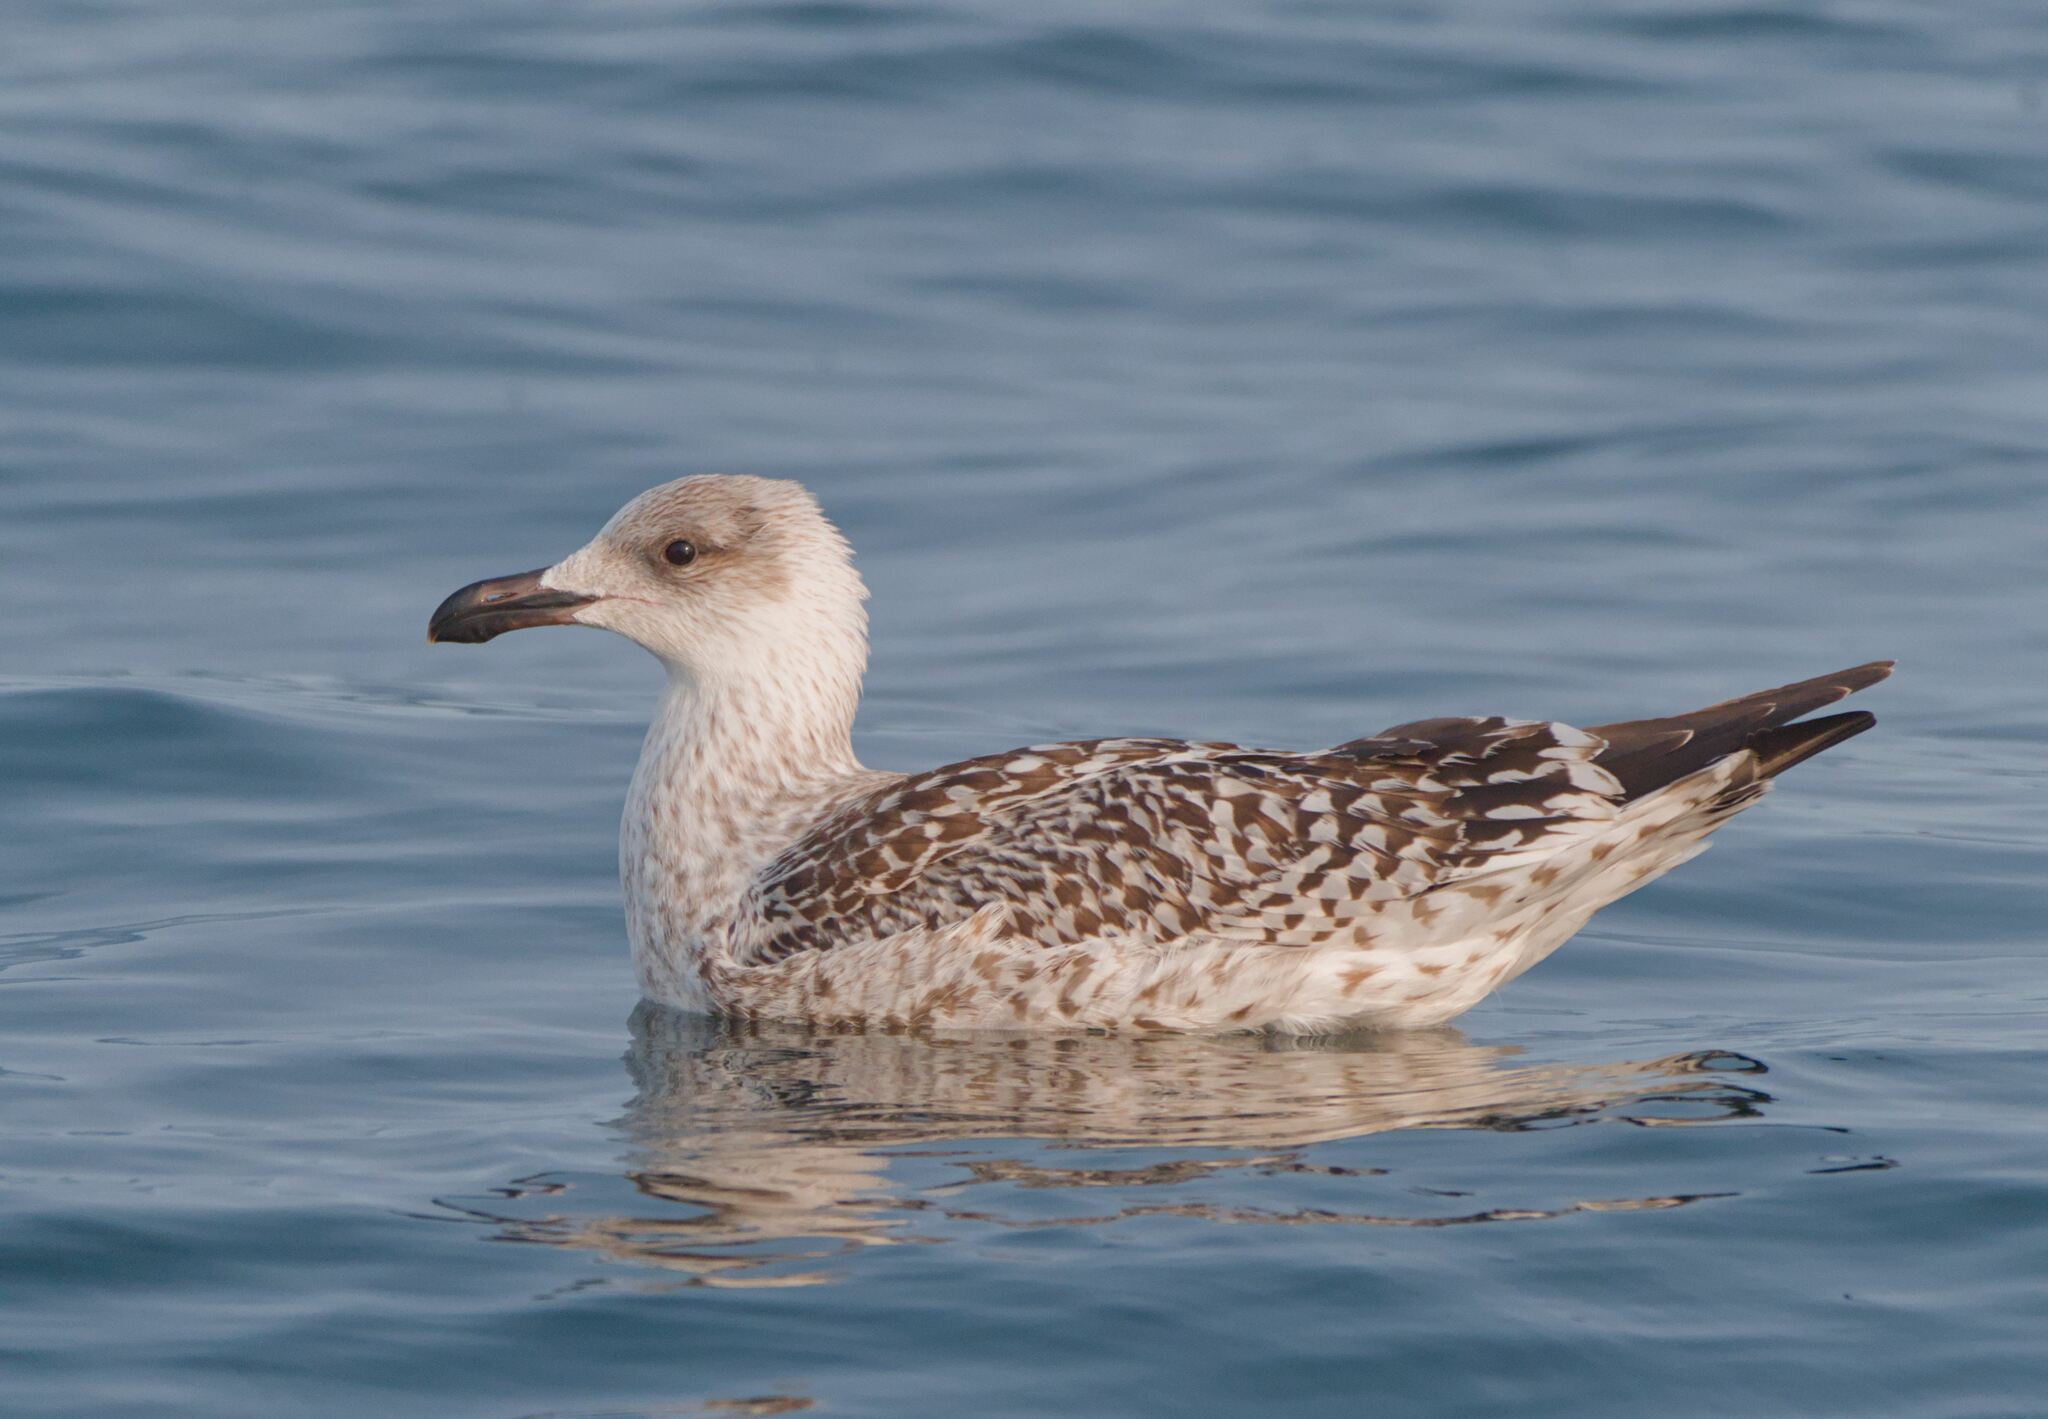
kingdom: Animalia
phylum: Chordata
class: Aves
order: Charadriiformes
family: Laridae
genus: Larus
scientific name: Larus marinus
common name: Great black-backed gull
